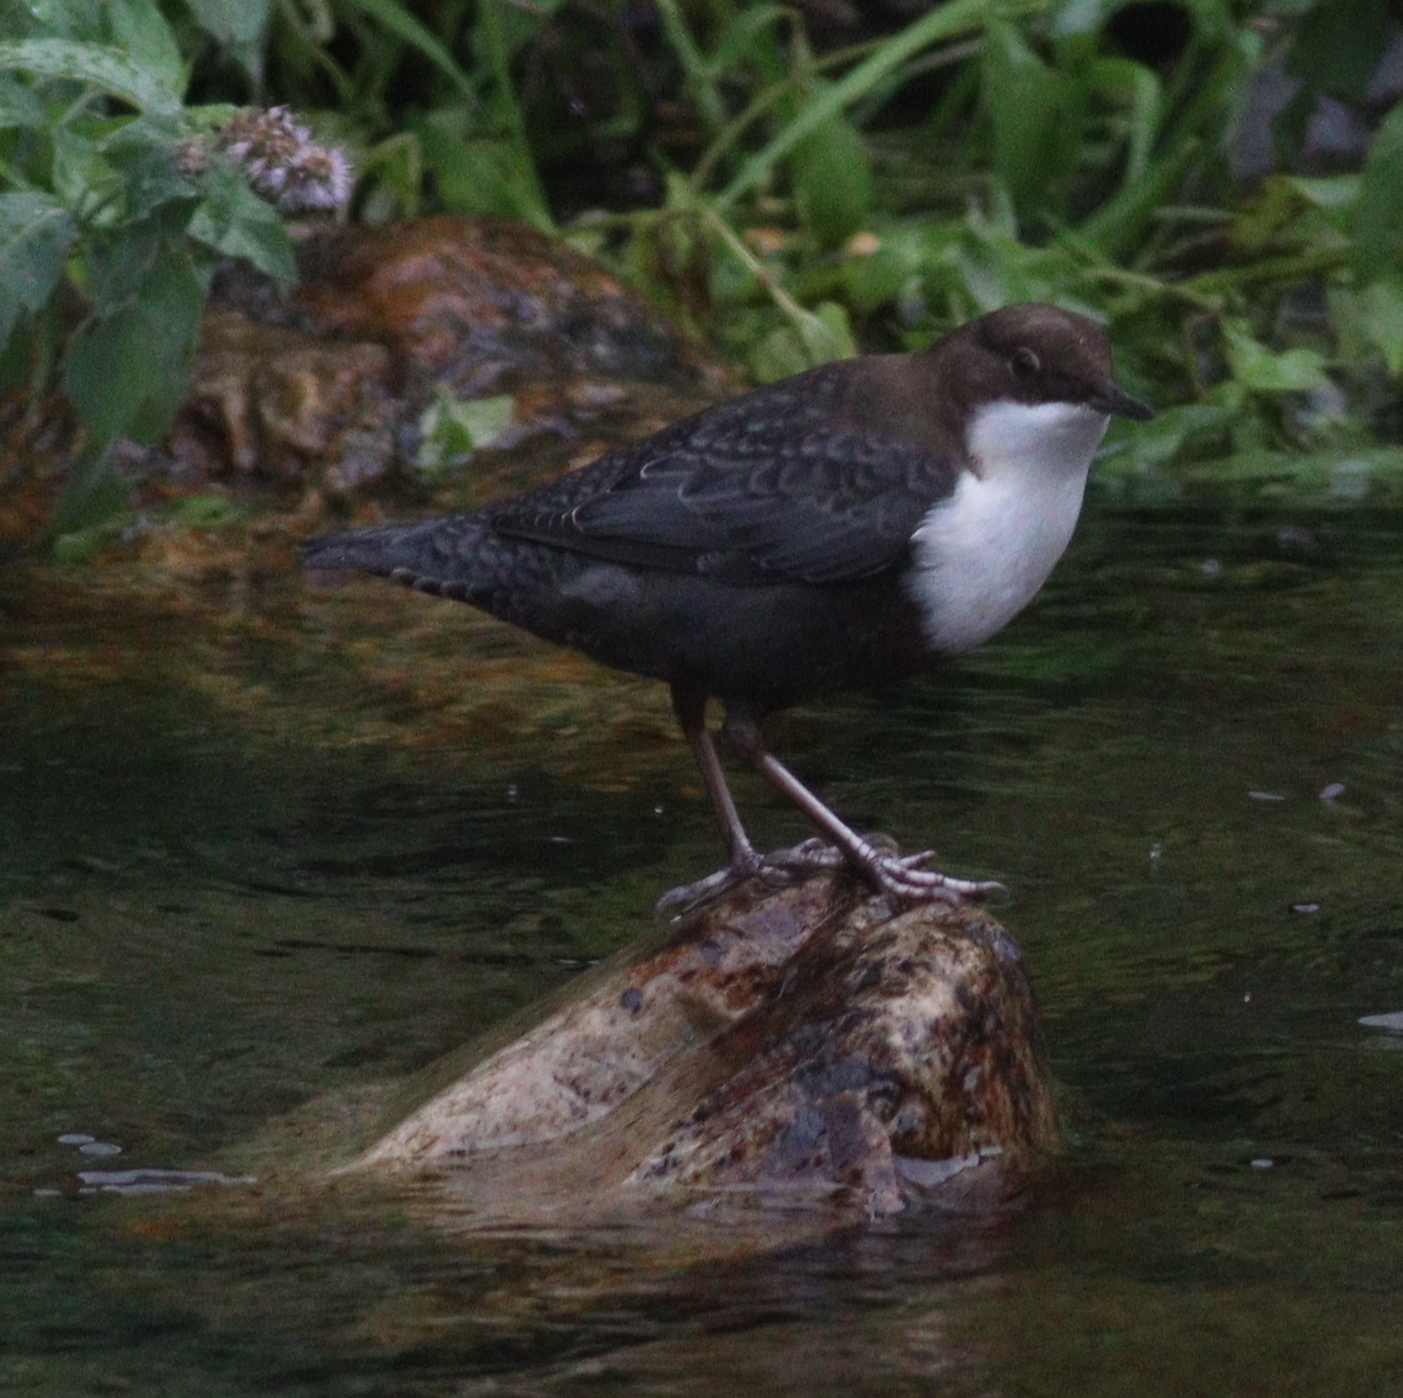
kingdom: Animalia
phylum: Chordata
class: Aves
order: Passeriformes
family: Cinclidae
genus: Cinclus
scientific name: Cinclus cinclus
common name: White-throated dipper
